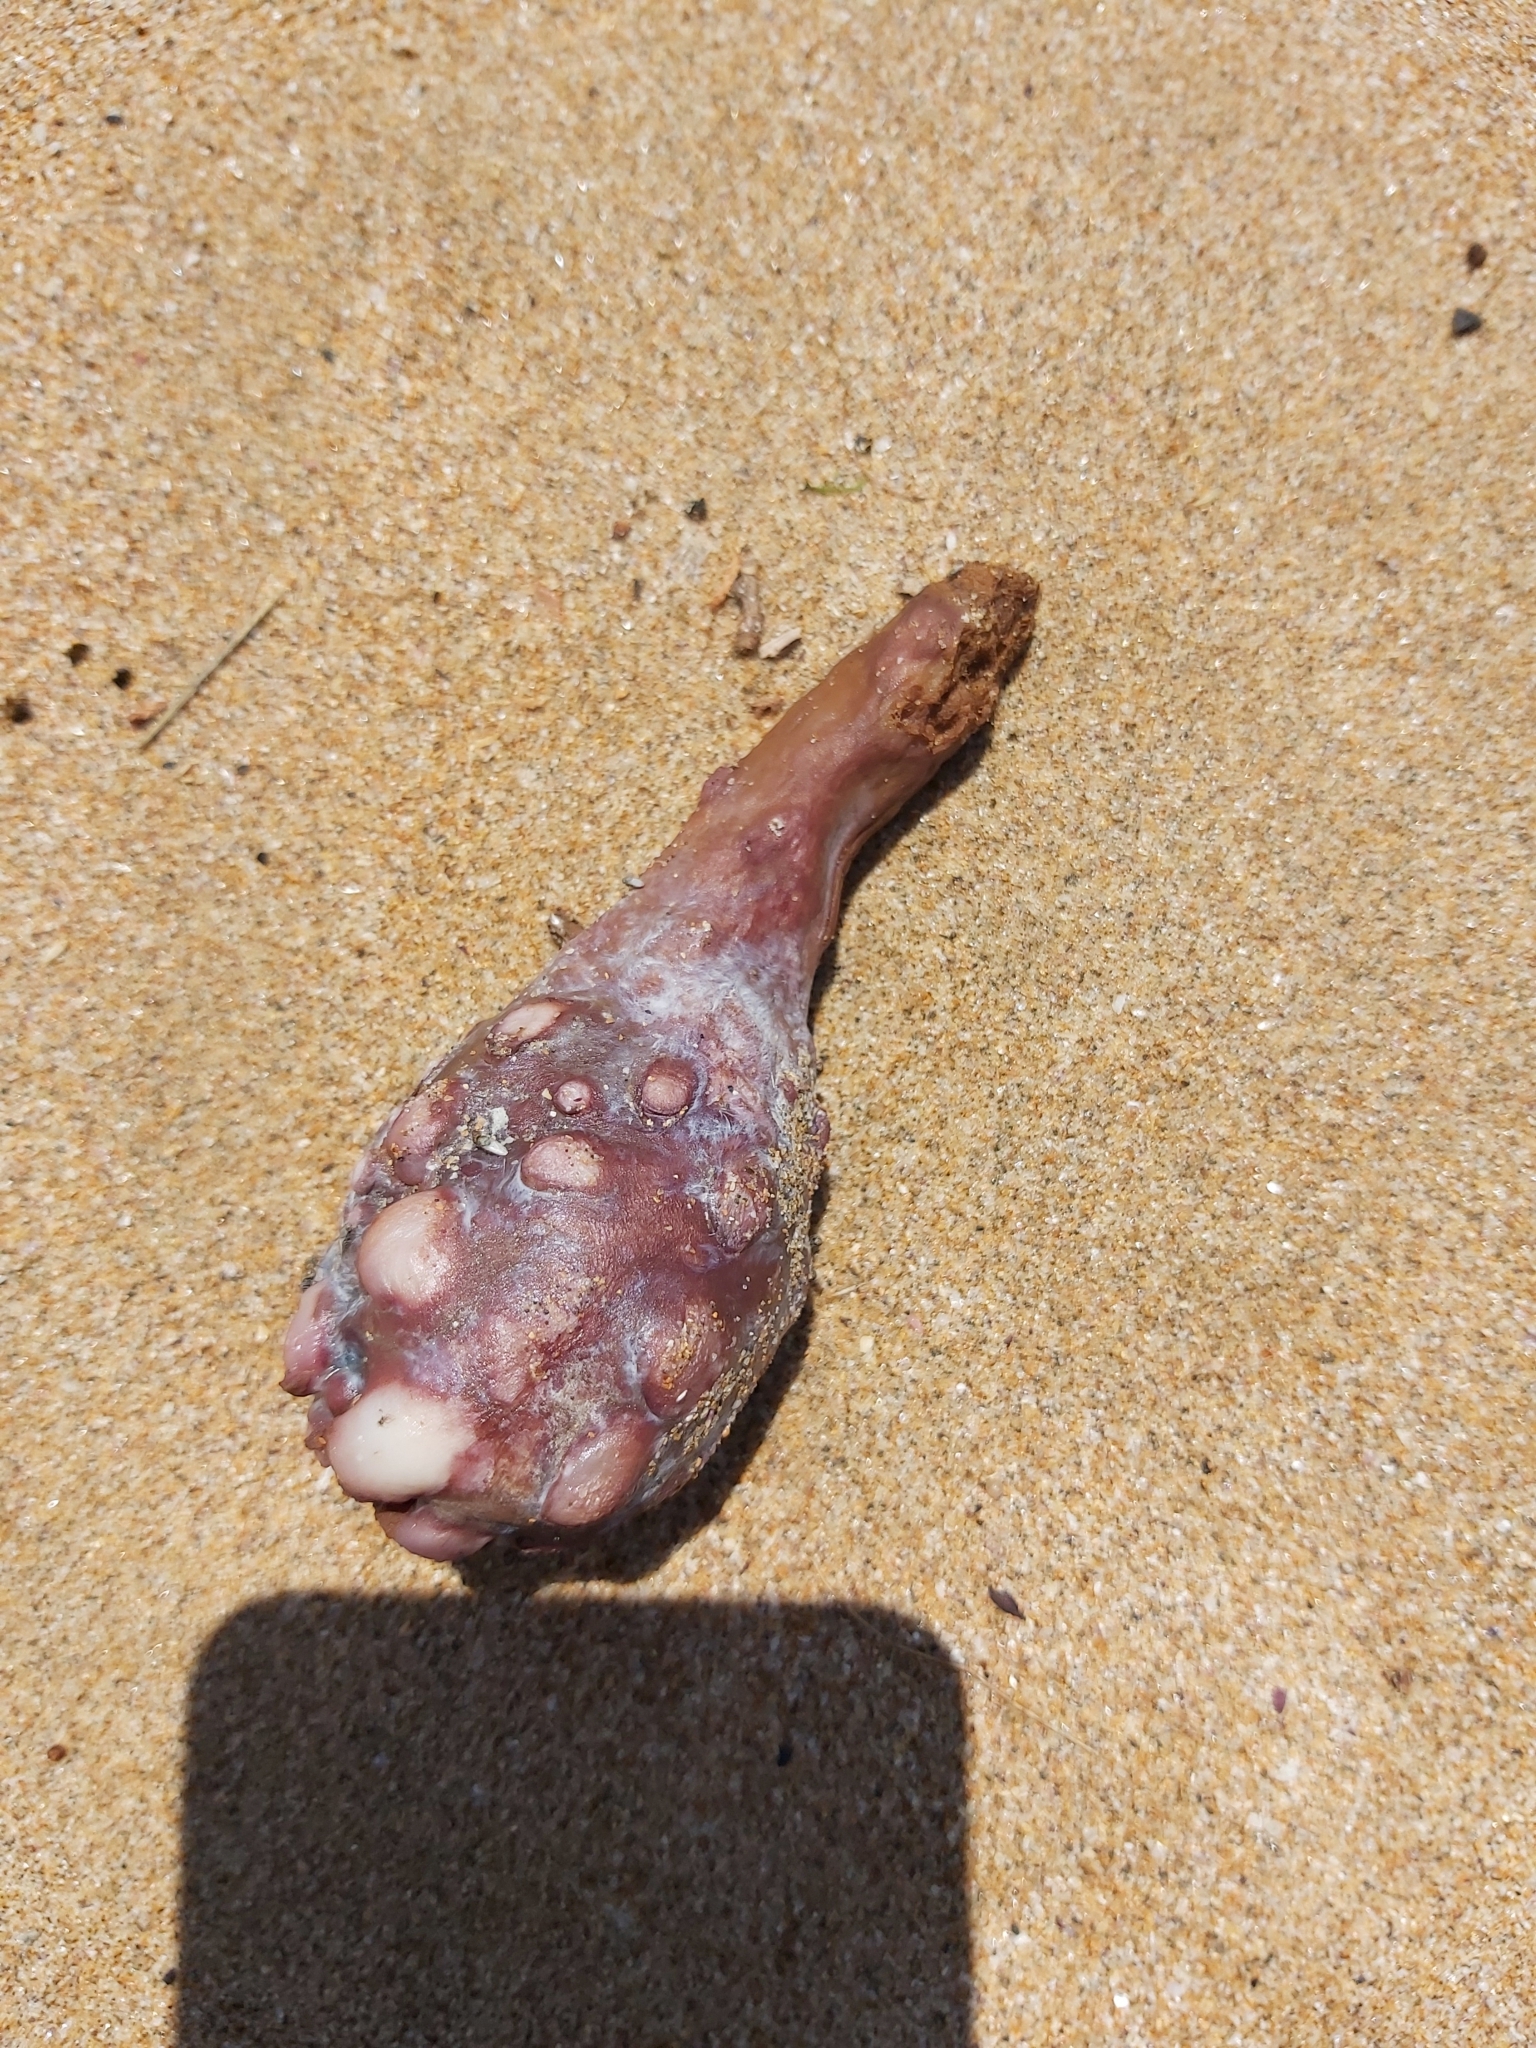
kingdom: Animalia
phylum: Chordata
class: Ascidiacea
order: Stolidobranchia
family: Pyuridae
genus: Pyura
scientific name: Pyura spinifera
